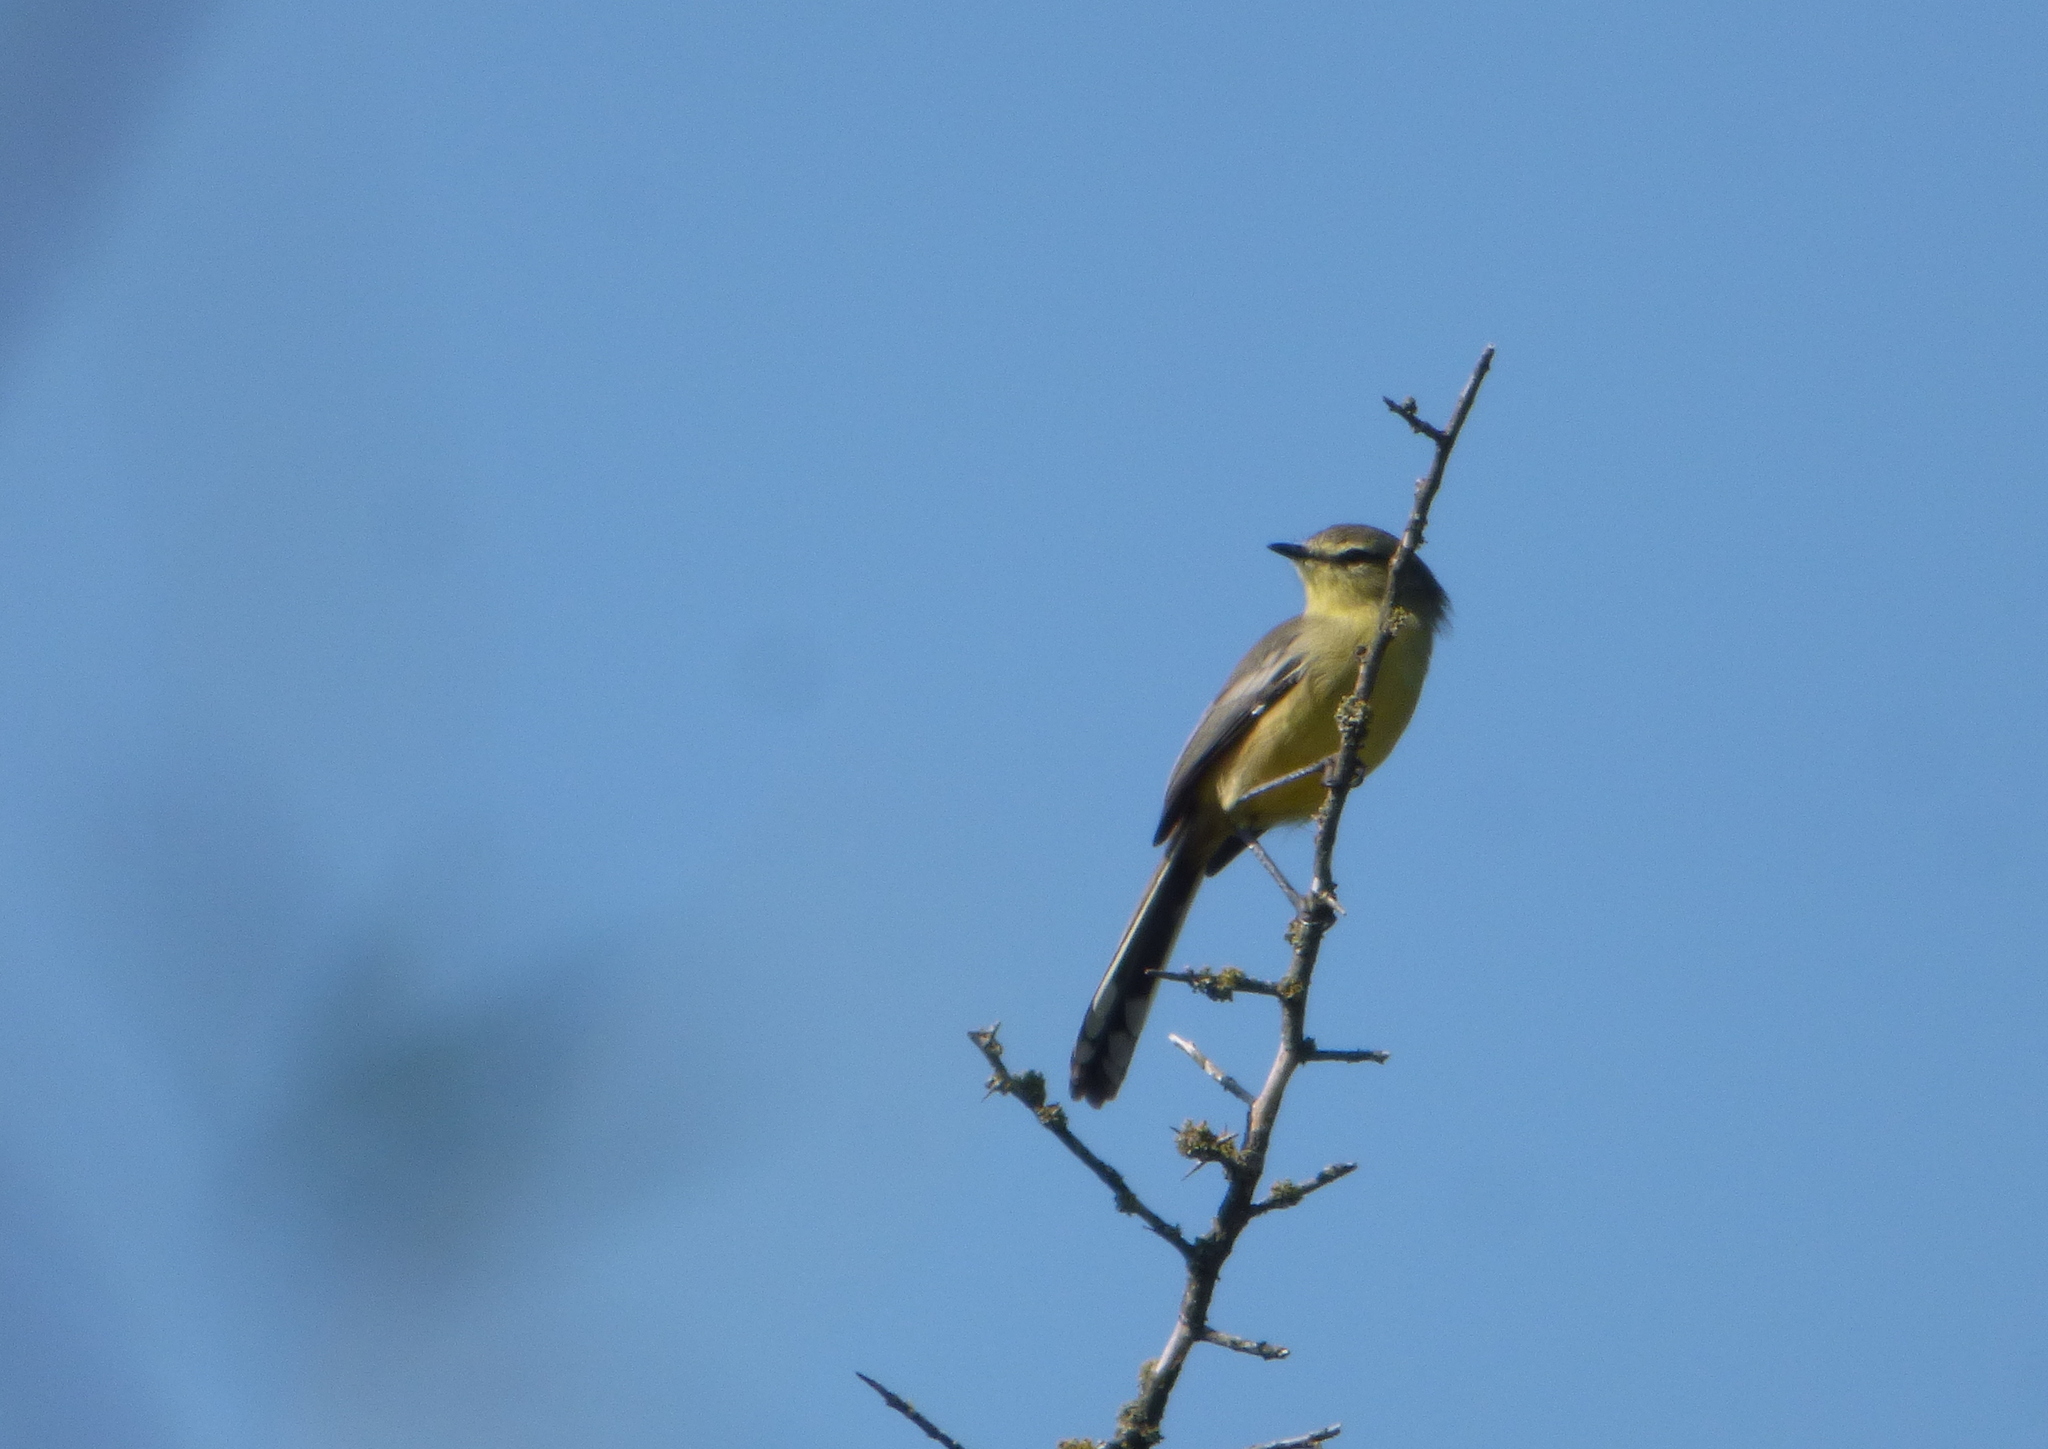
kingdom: Animalia
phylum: Chordata
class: Aves
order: Passeriformes
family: Tyrannidae
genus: Stigmatura
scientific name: Stigmatura budytoides
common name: Greater wagtail-tyrant
